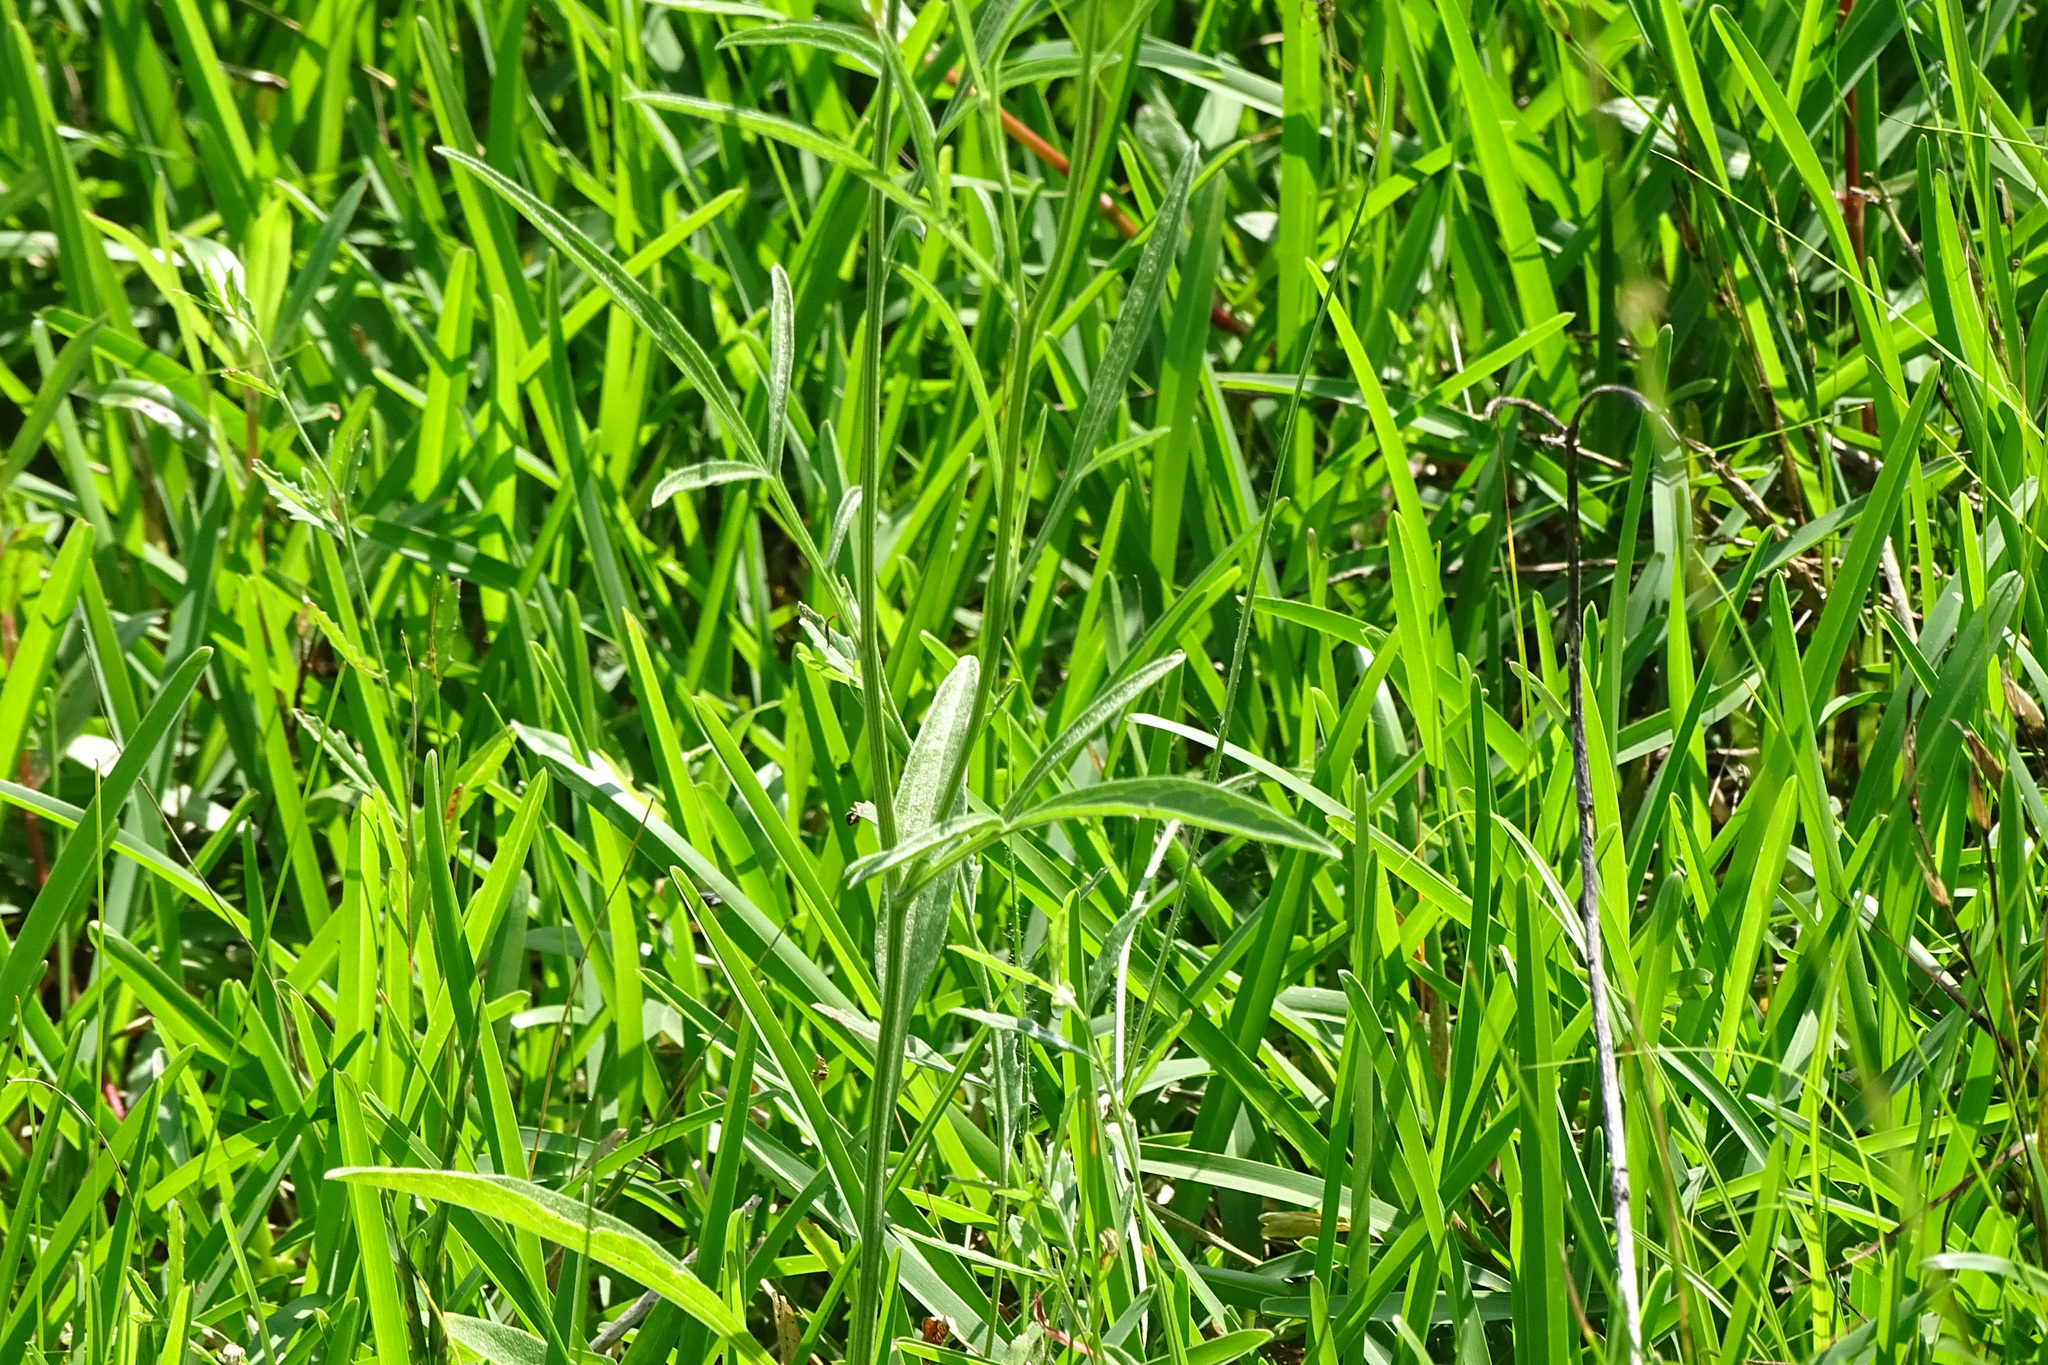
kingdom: Plantae
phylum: Tracheophyta
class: Magnoliopsida
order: Asterales
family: Asteraceae
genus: Ratibida
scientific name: Ratibida columnifera
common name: Prairie coneflower
